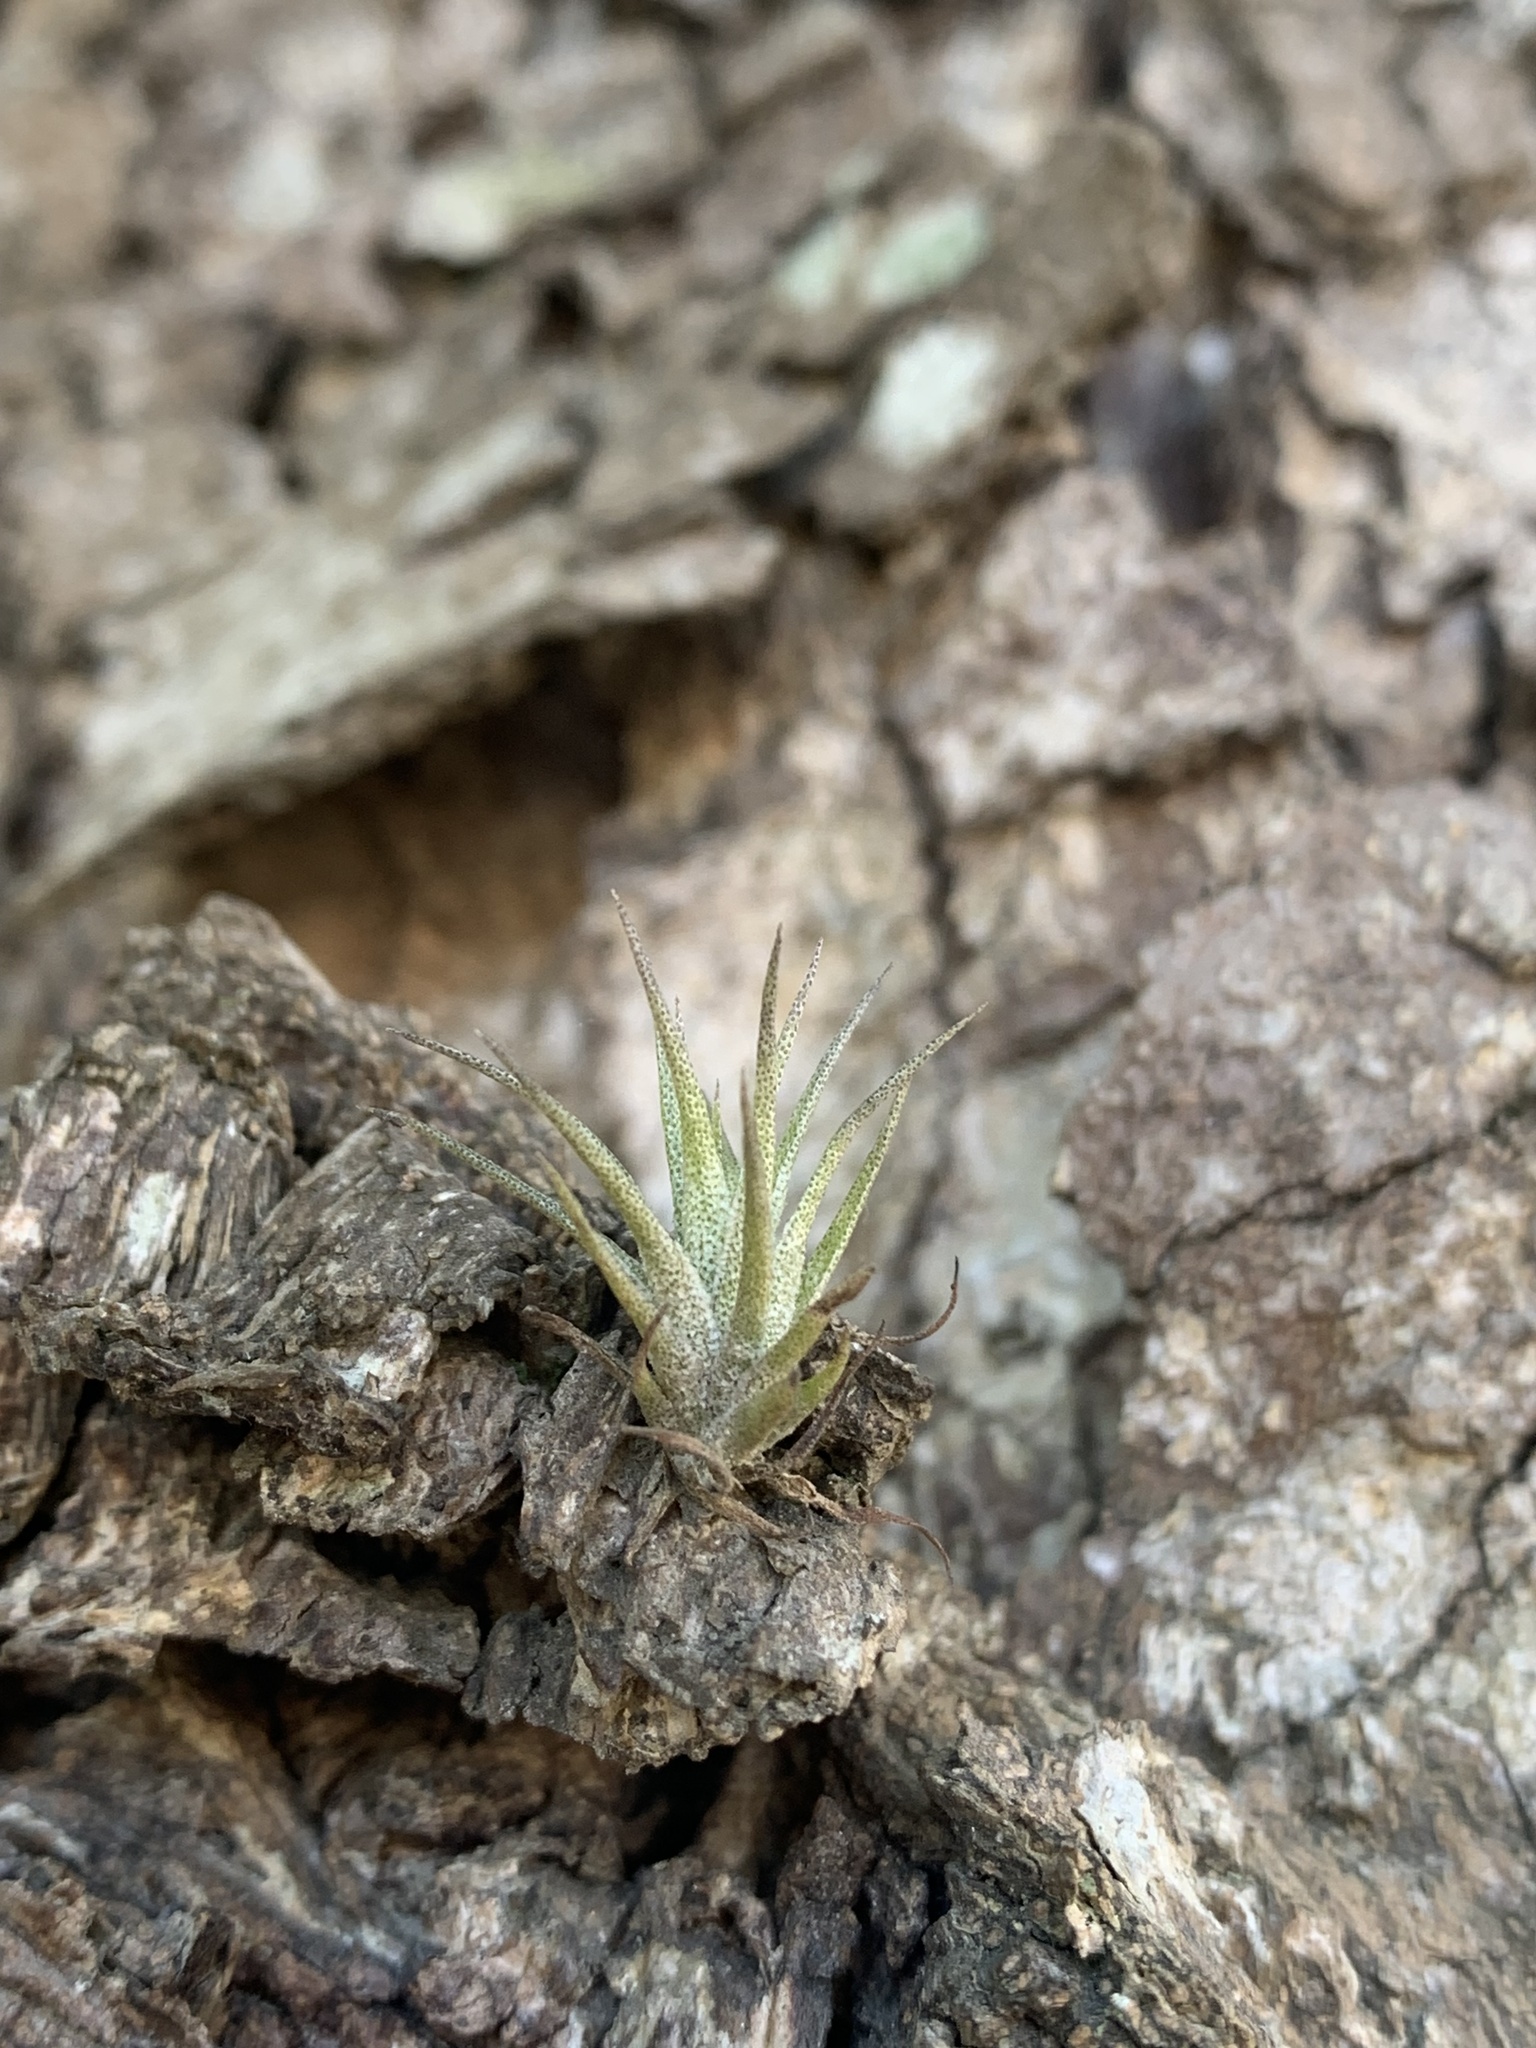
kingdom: Plantae
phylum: Tracheophyta
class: Liliopsida
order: Poales
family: Bromeliaceae
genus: Tillandsia
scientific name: Tillandsia stricta
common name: Airplant
